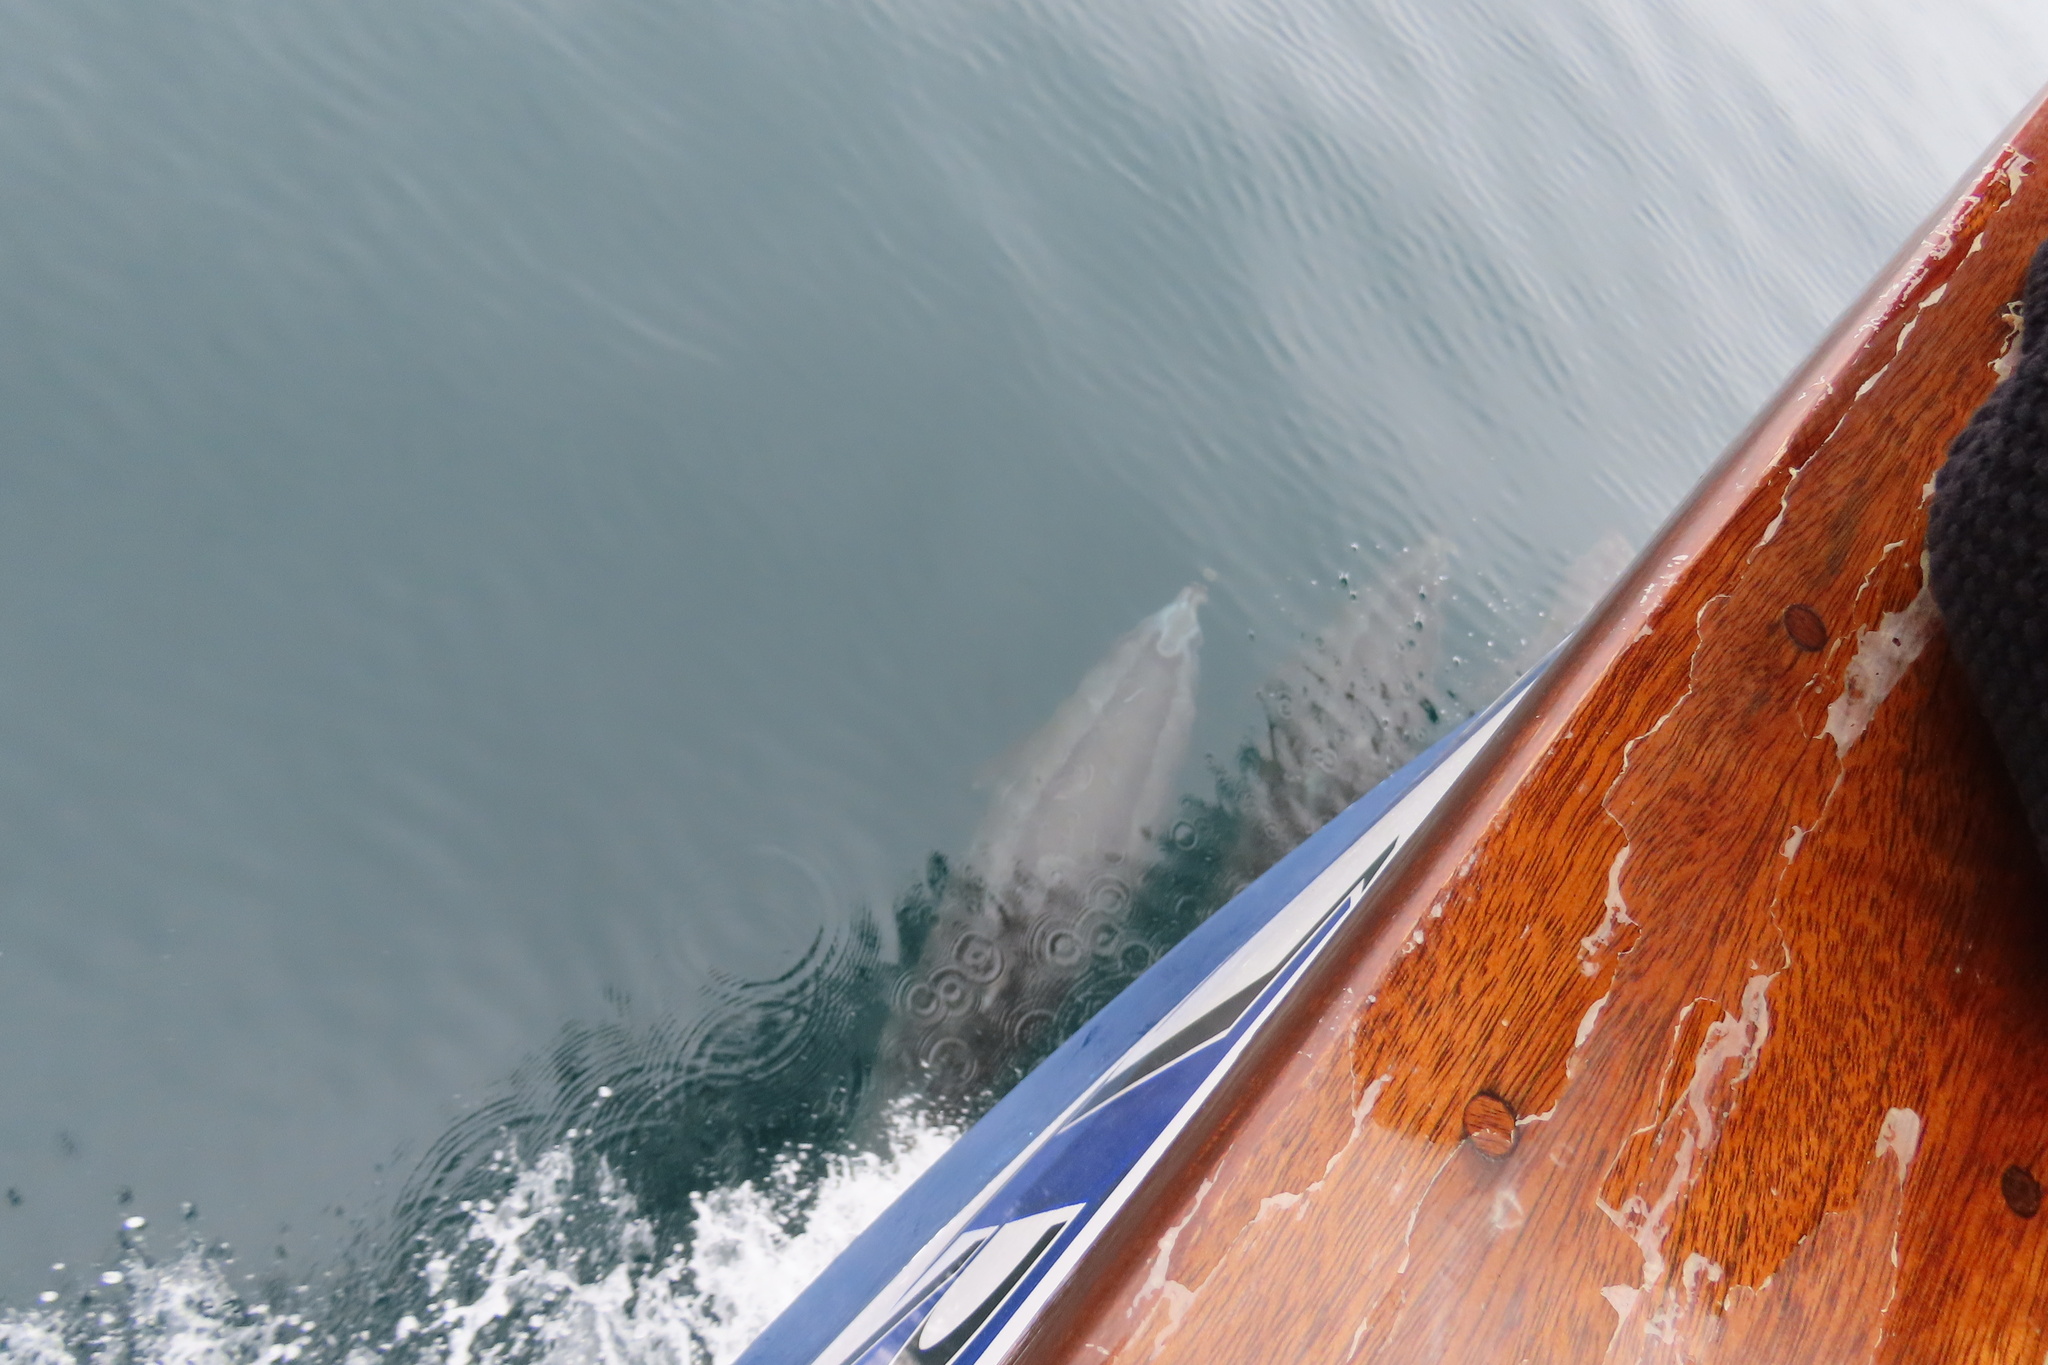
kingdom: Animalia
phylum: Chordata
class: Mammalia
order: Cetacea
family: Delphinidae
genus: Tursiops
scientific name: Tursiops truncatus
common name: Bottlenose dolphin
